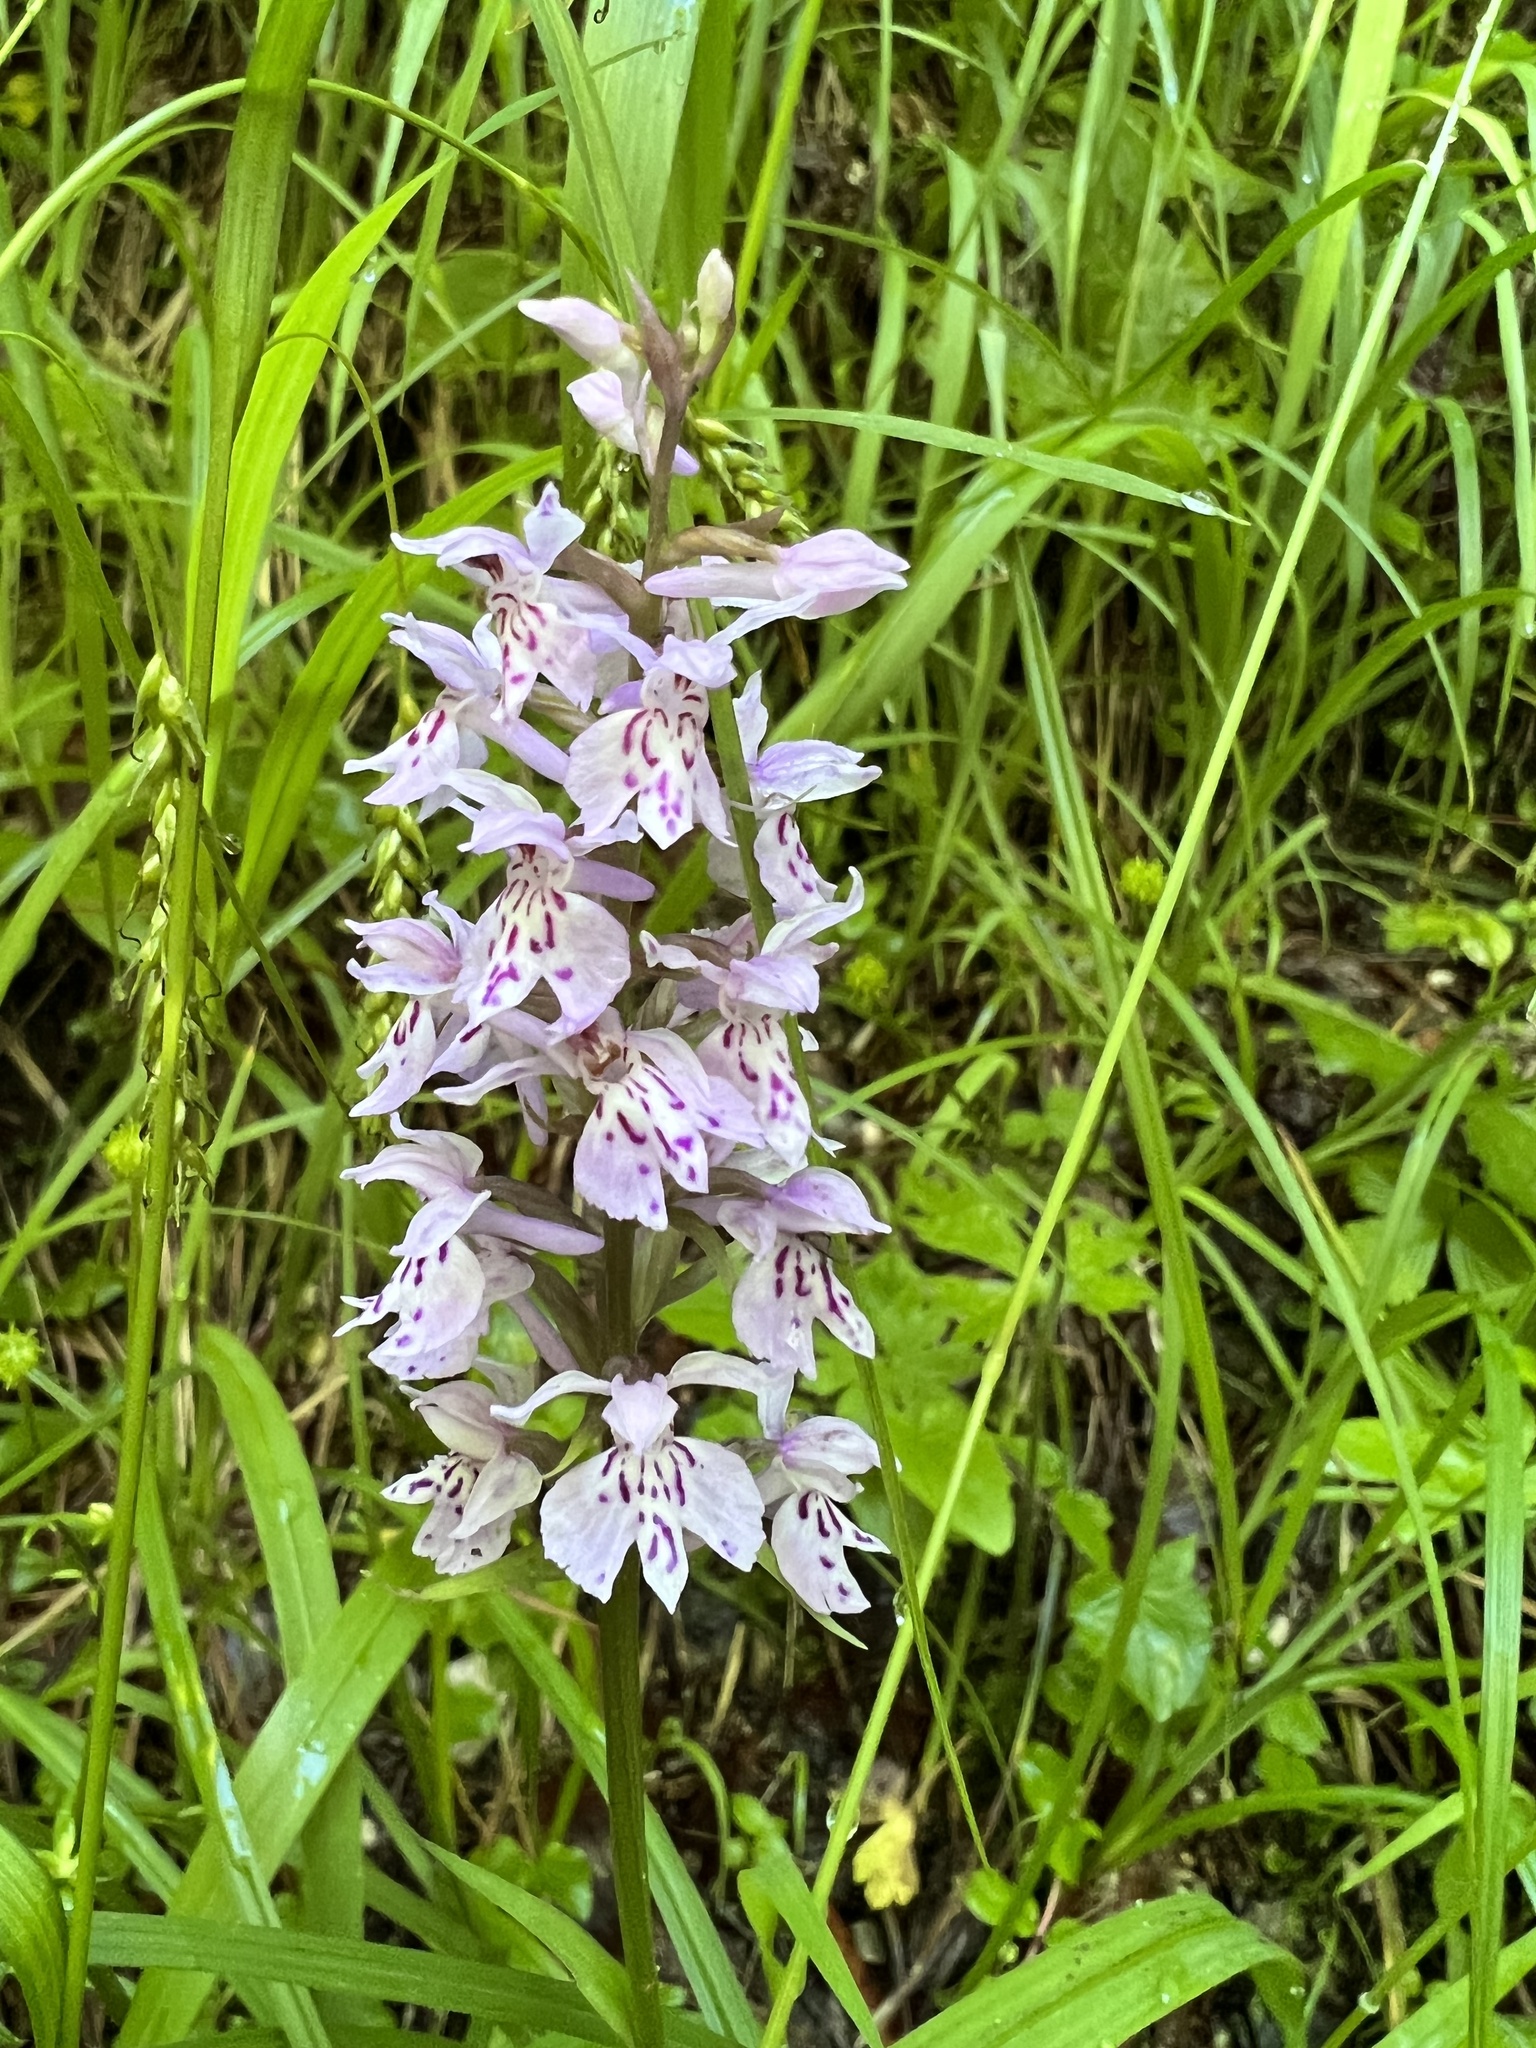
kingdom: Plantae
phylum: Tracheophyta
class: Liliopsida
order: Asparagales
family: Orchidaceae
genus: Dactylorhiza
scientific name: Dactylorhiza maculata
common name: Heath spotted-orchid
